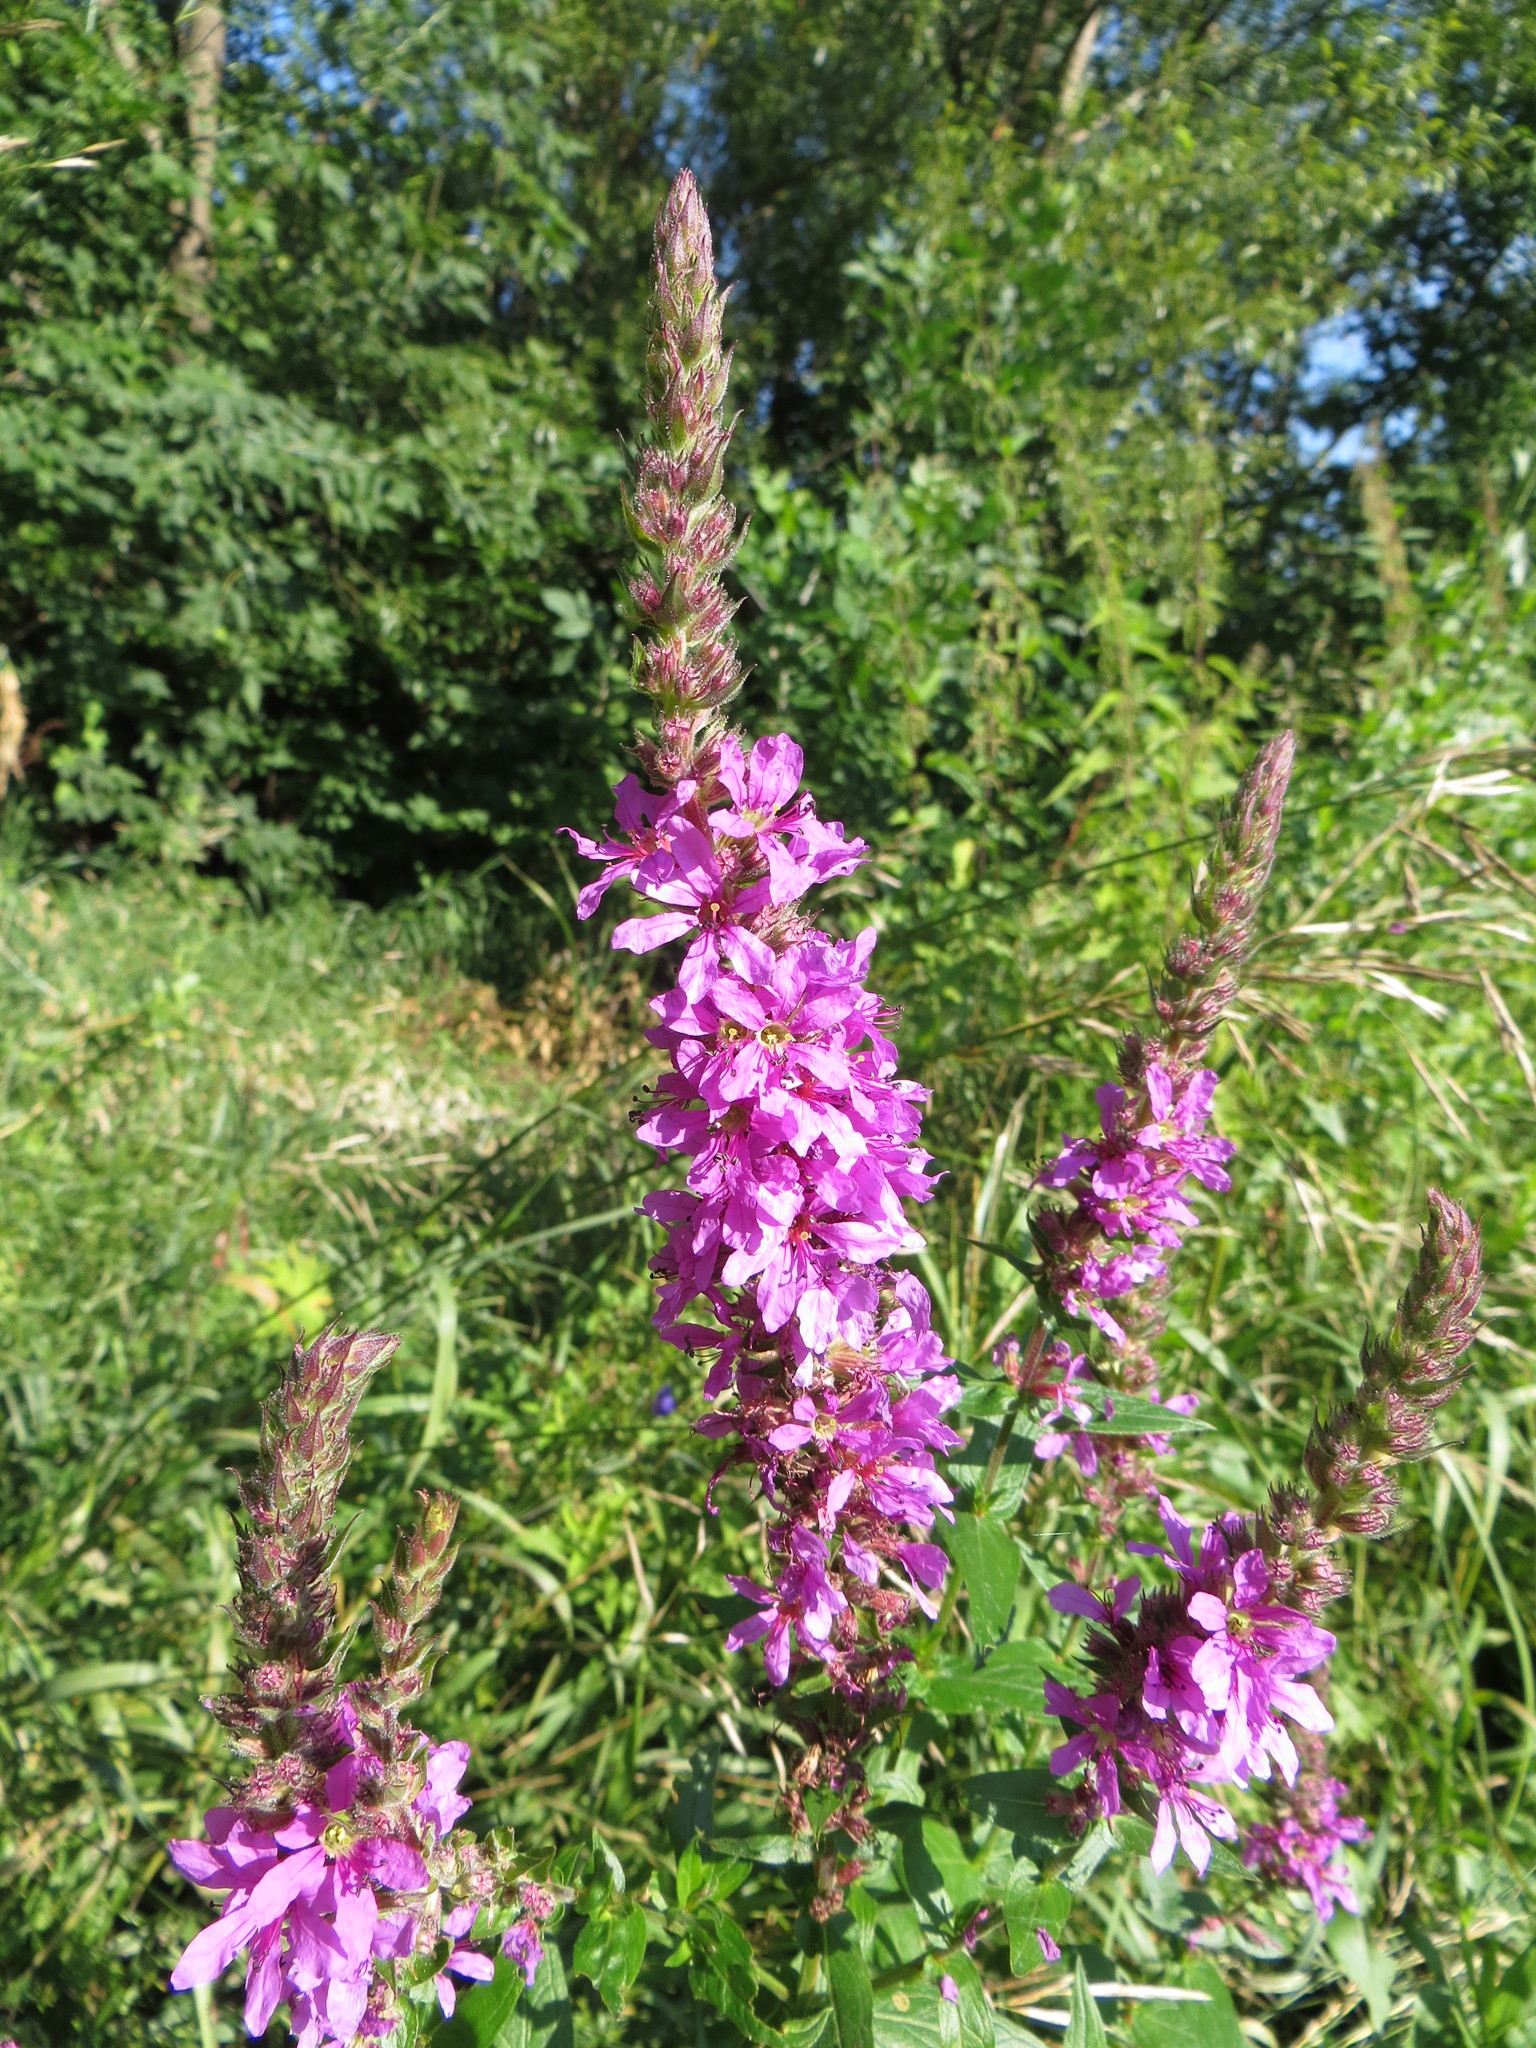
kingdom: Plantae
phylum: Tracheophyta
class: Magnoliopsida
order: Myrtales
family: Lythraceae
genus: Lythrum
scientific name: Lythrum salicaria
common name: Purple loosestrife
